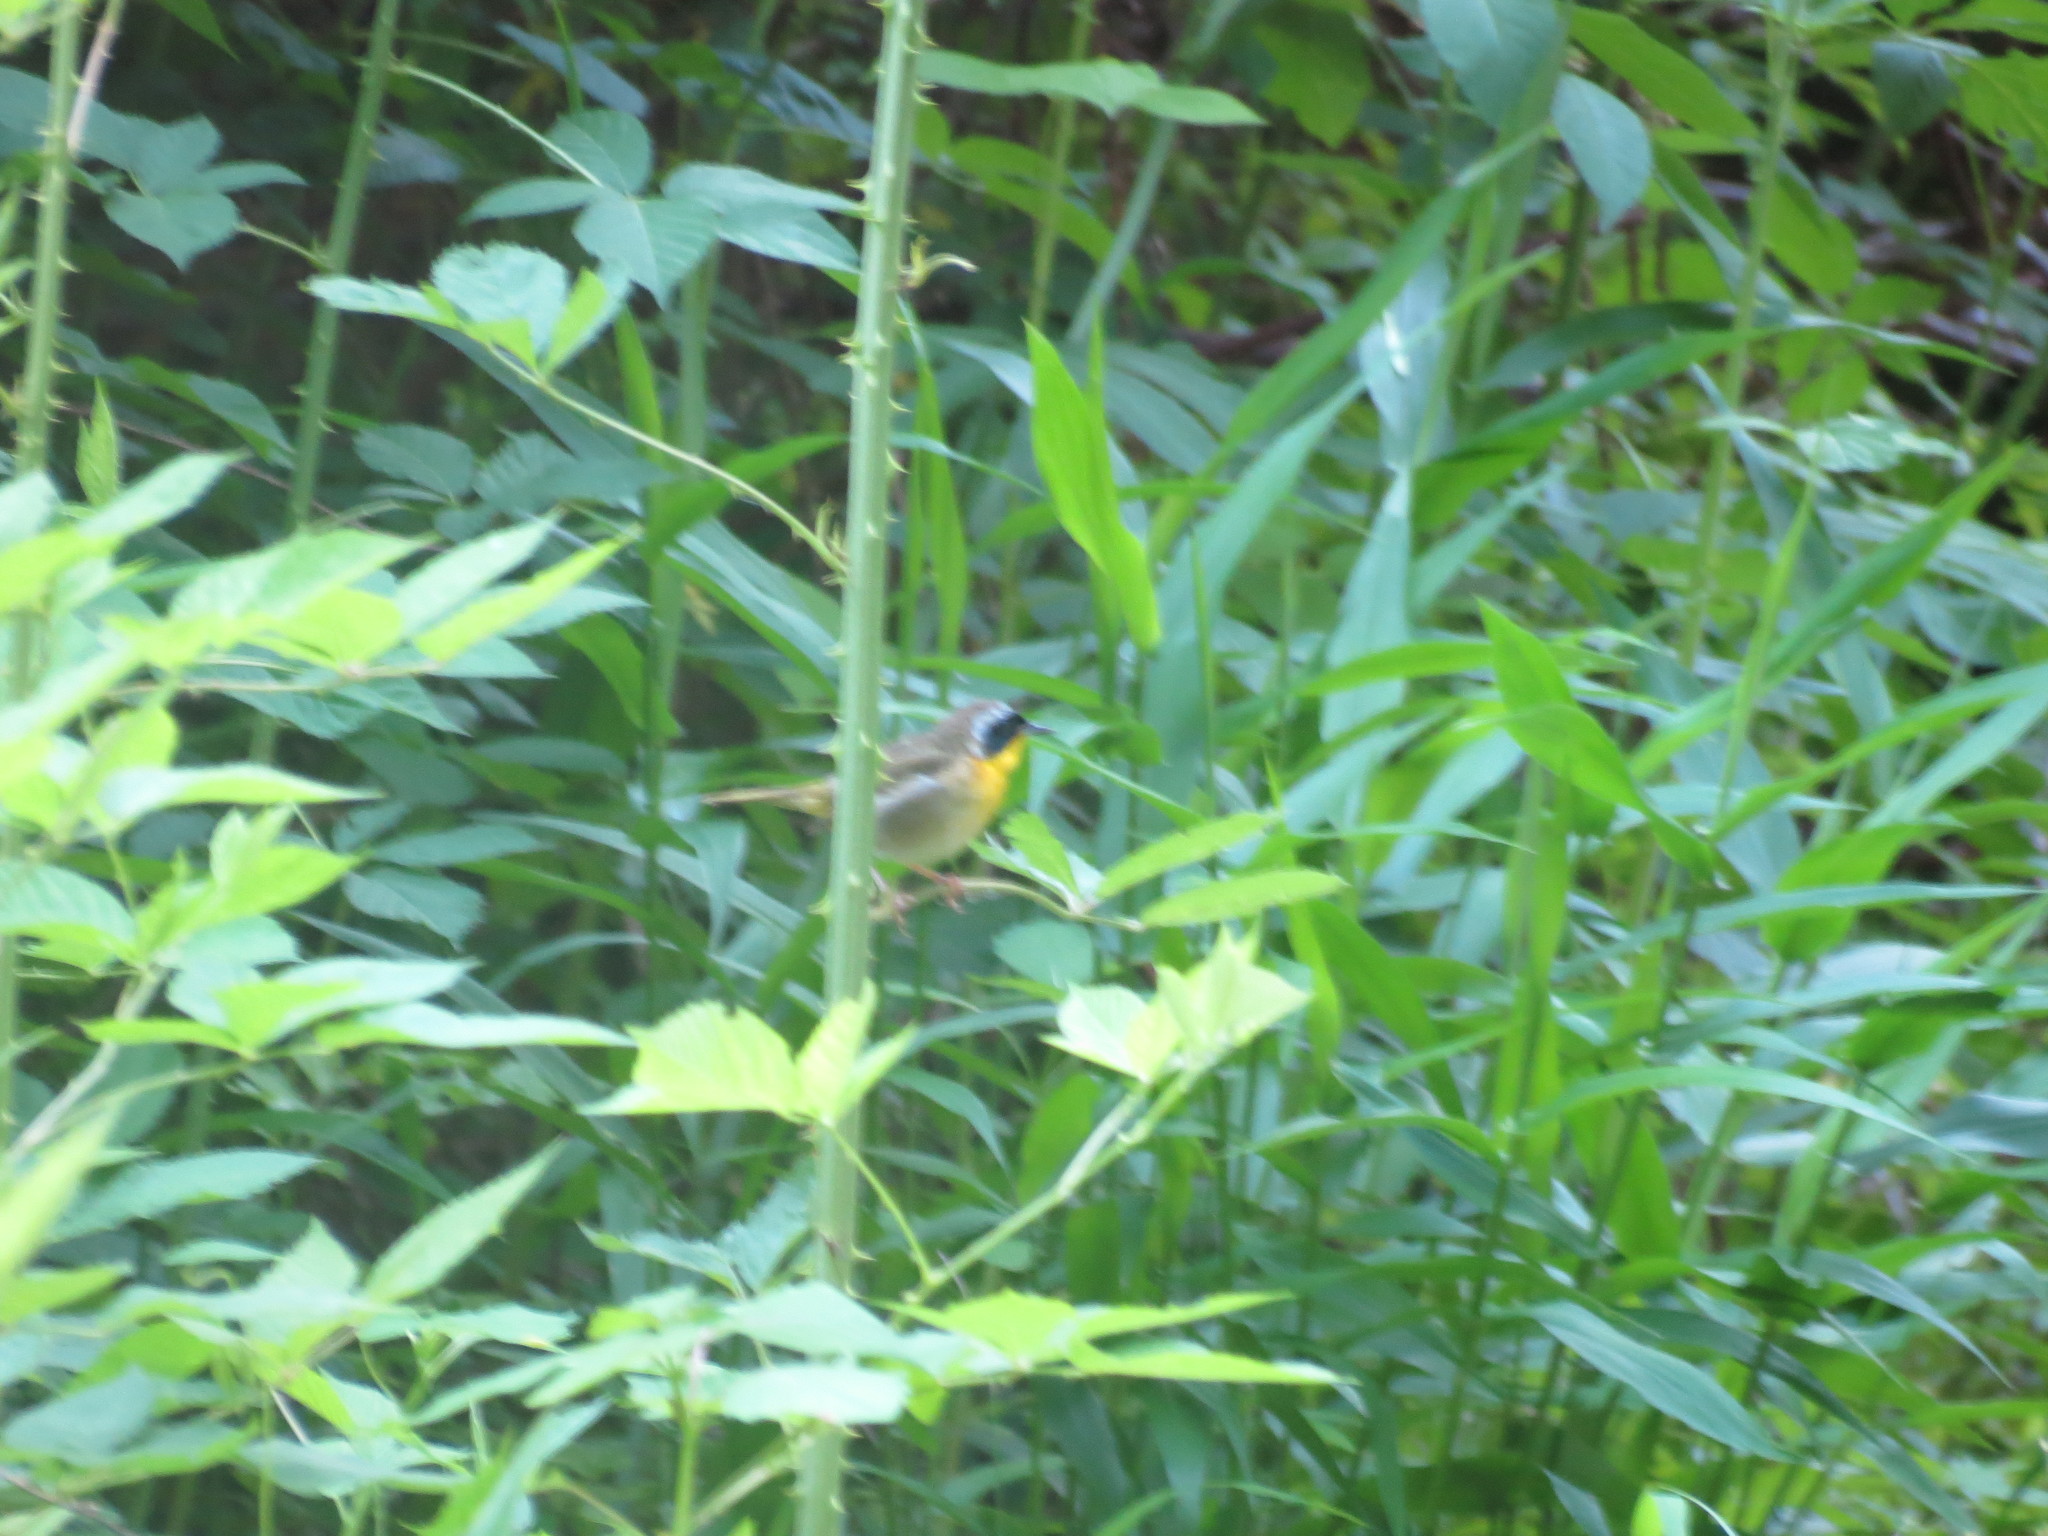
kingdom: Animalia
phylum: Chordata
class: Aves
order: Passeriformes
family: Parulidae
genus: Geothlypis
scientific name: Geothlypis trichas
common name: Common yellowthroat
